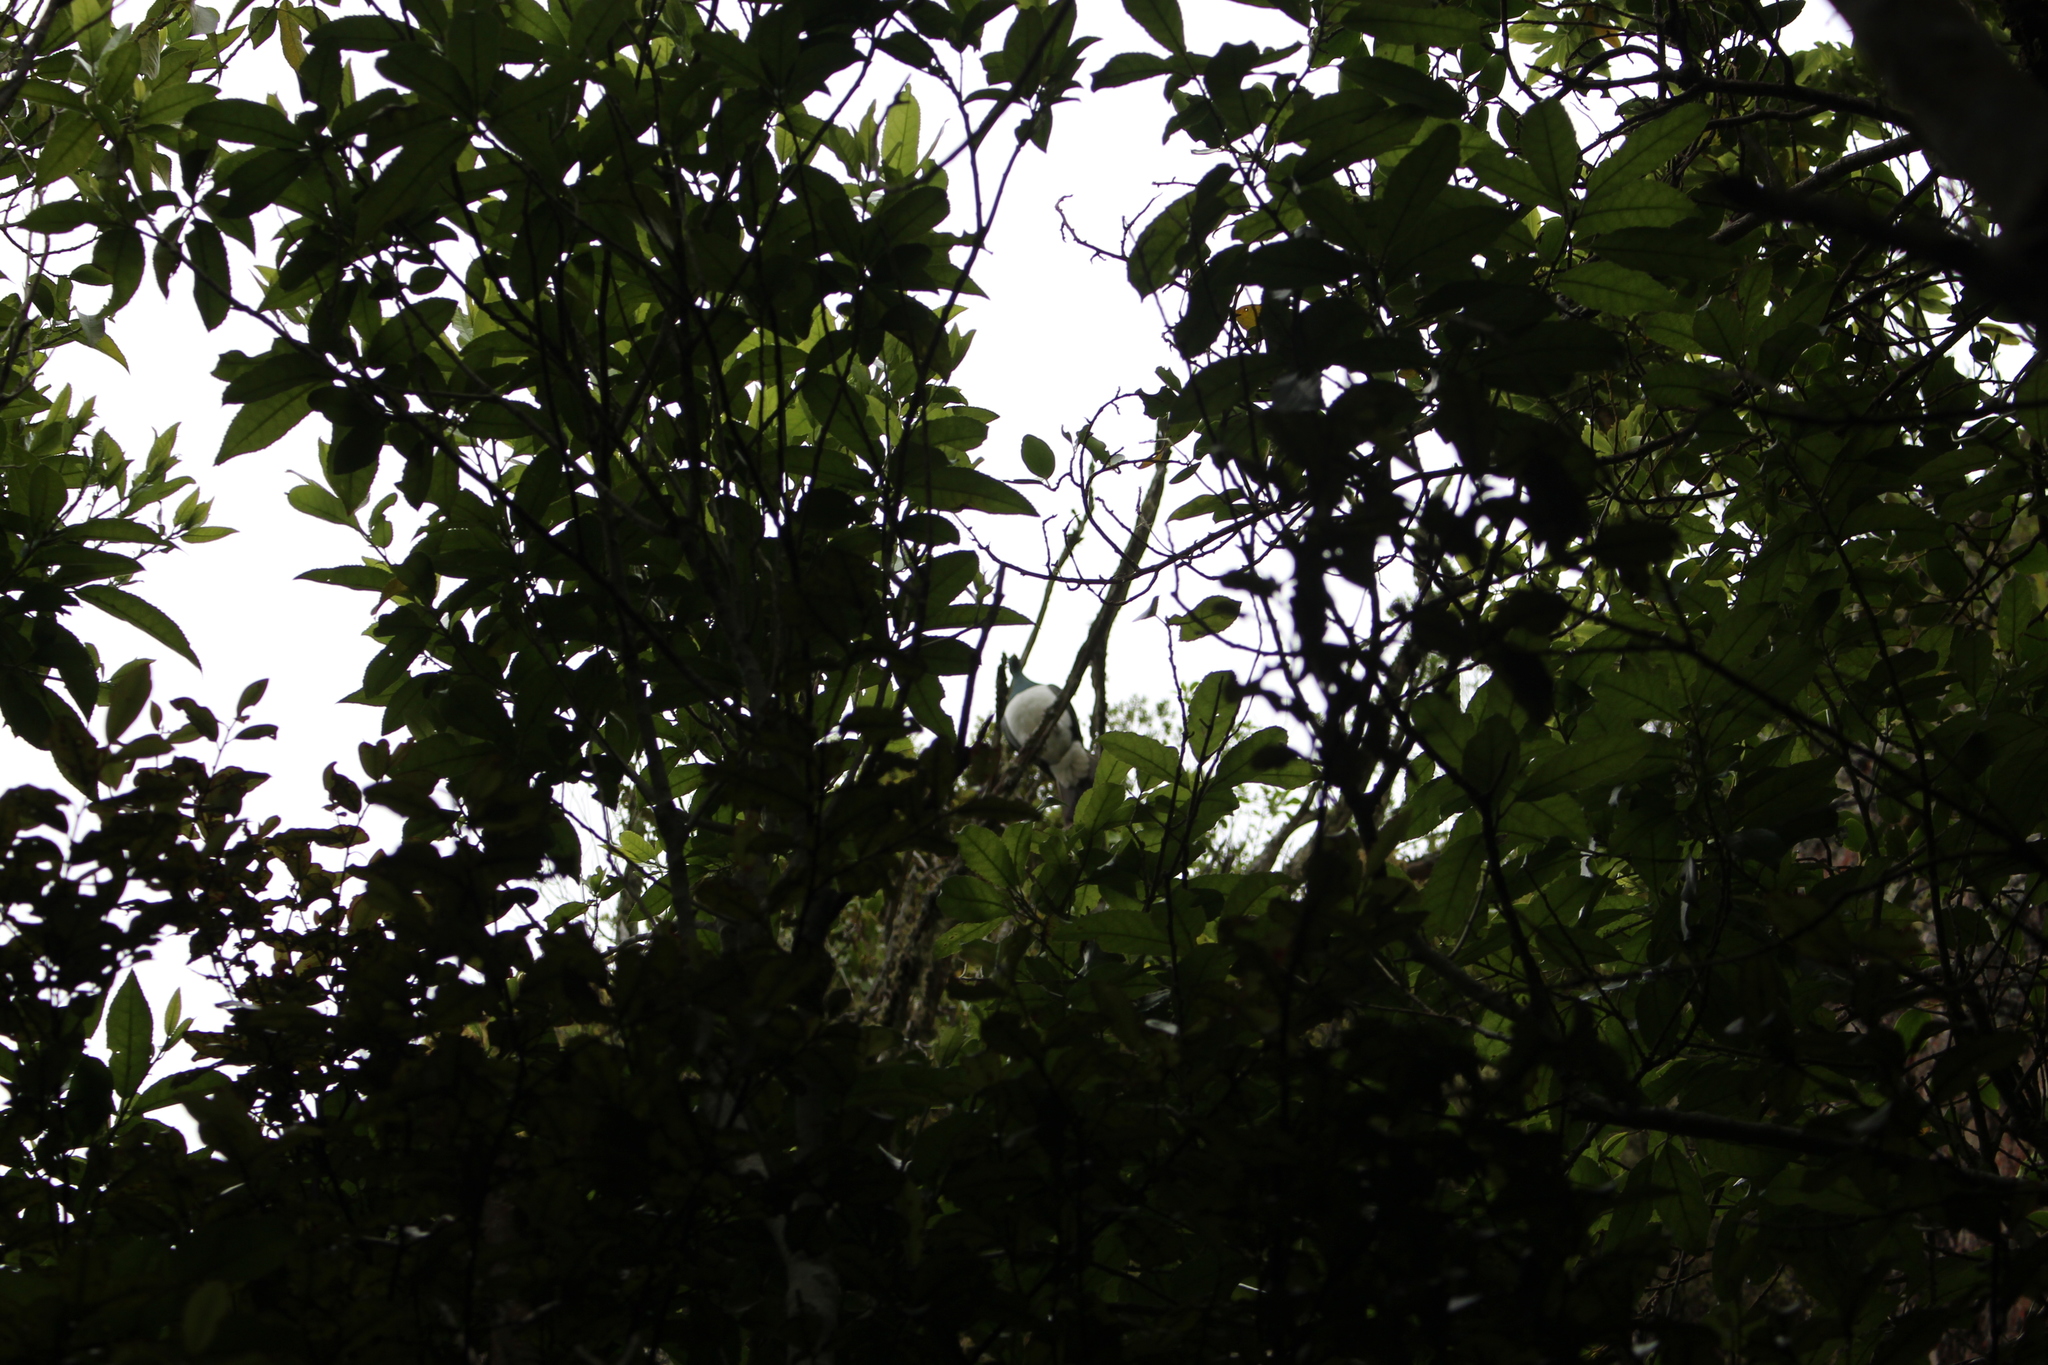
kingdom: Animalia
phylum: Chordata
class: Aves
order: Columbiformes
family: Columbidae
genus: Hemiphaga
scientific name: Hemiphaga novaeseelandiae
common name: New zealand pigeon
